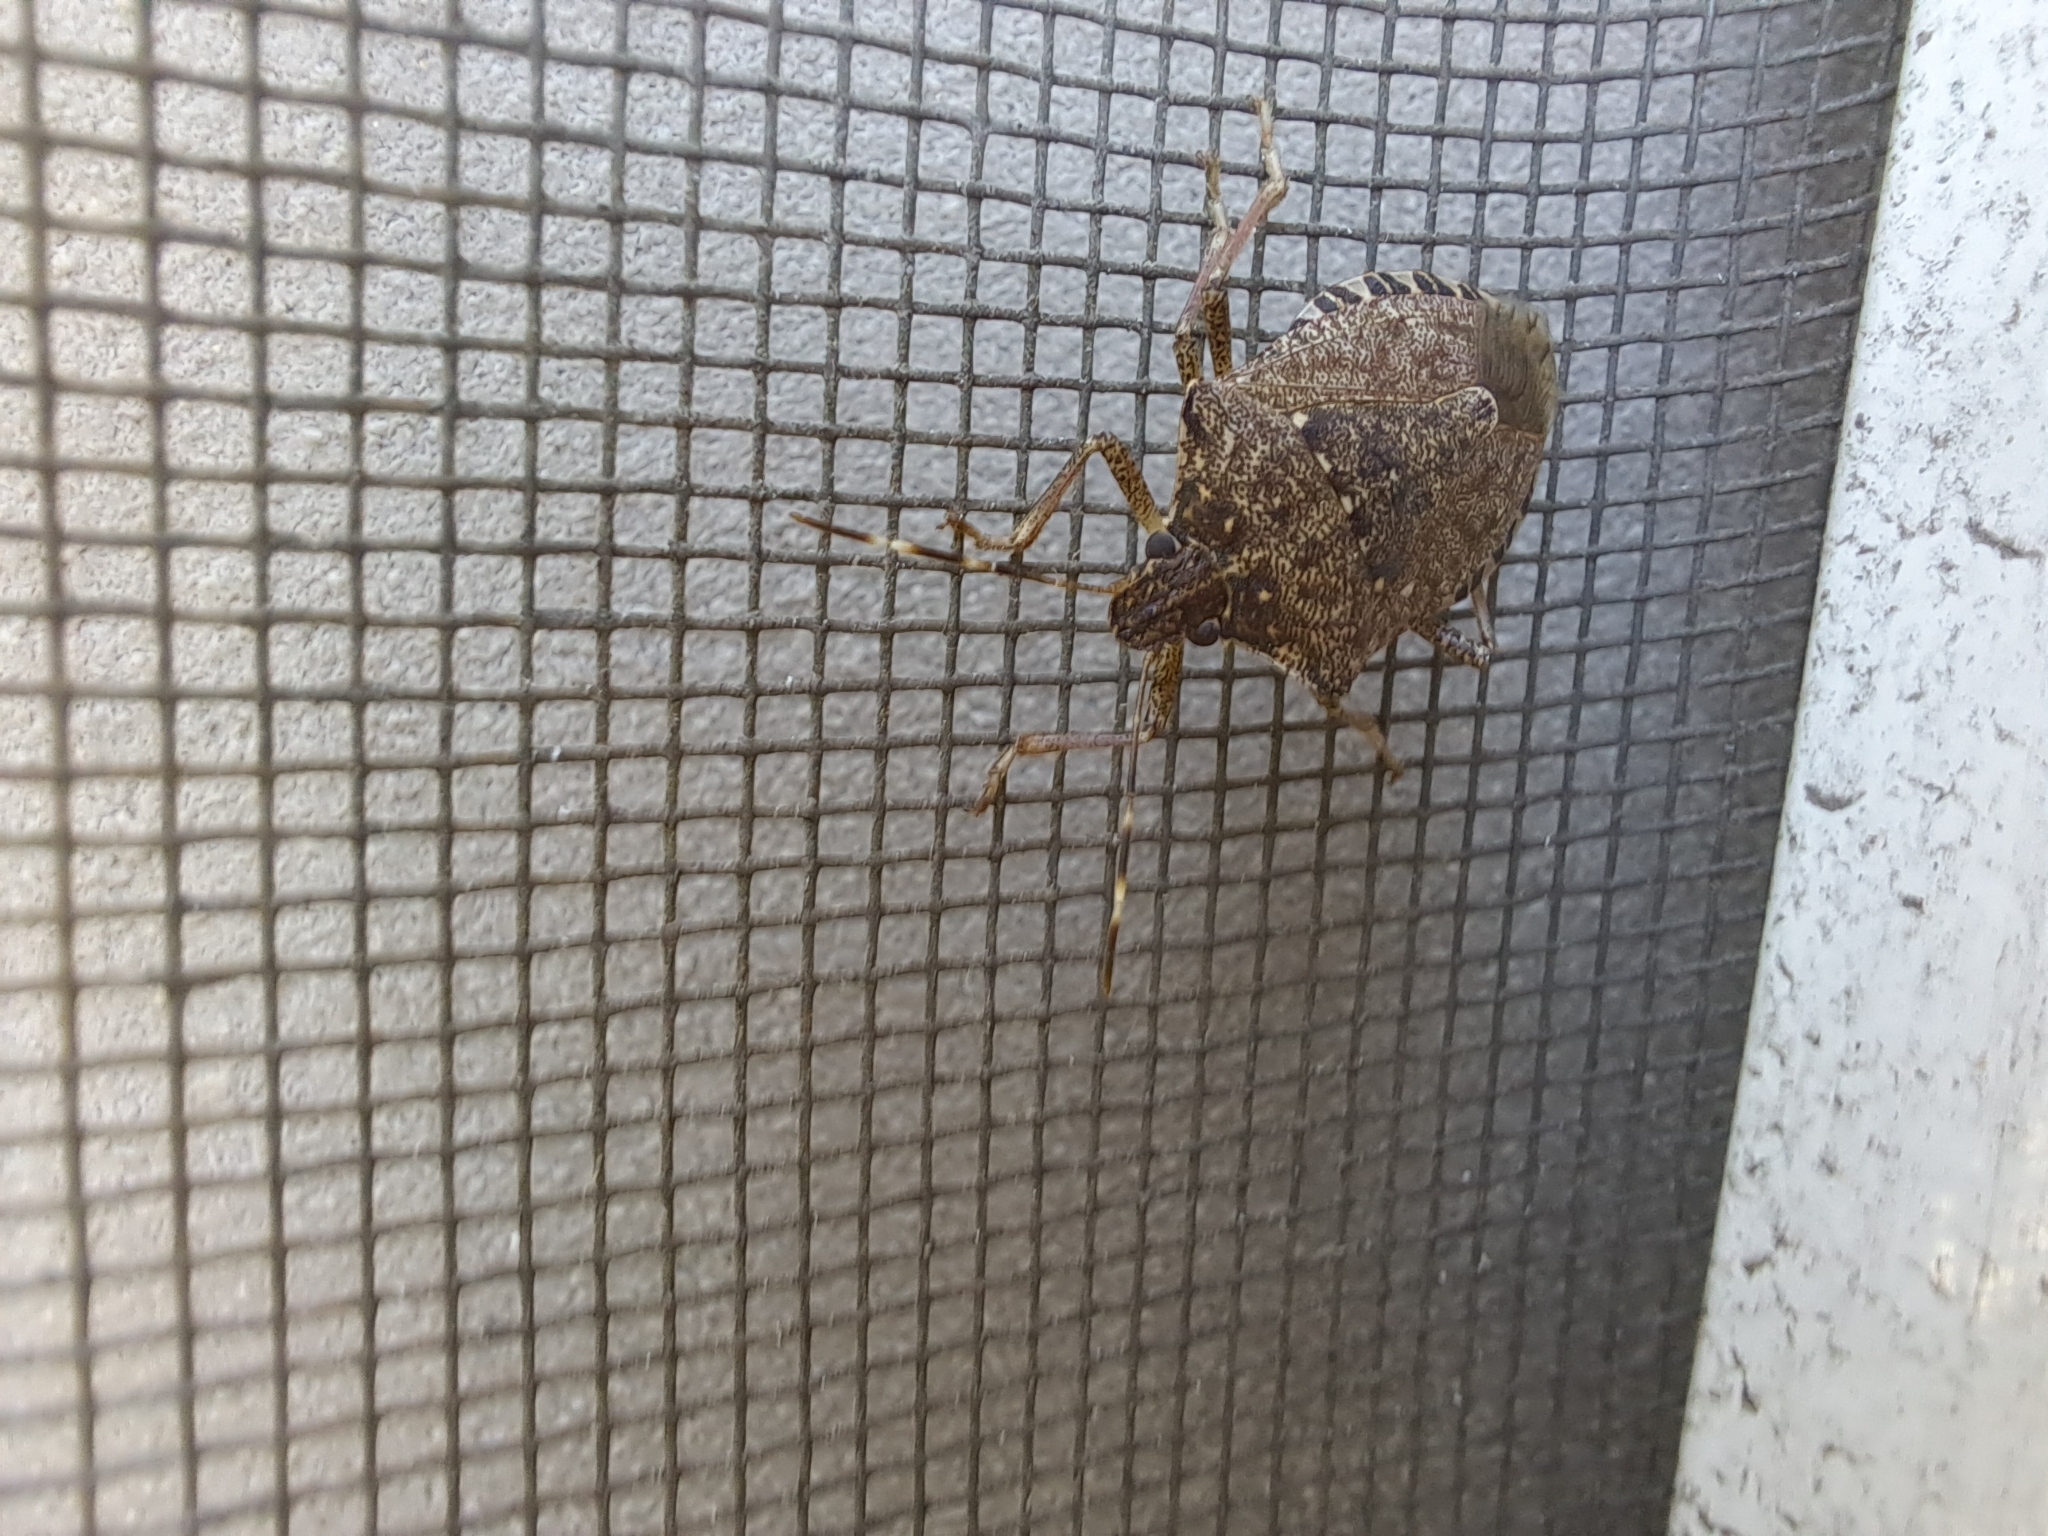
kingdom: Animalia
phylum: Arthropoda
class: Insecta
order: Hemiptera
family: Pentatomidae
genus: Halyomorpha
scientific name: Halyomorpha halys
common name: Brown marmorated stink bug
